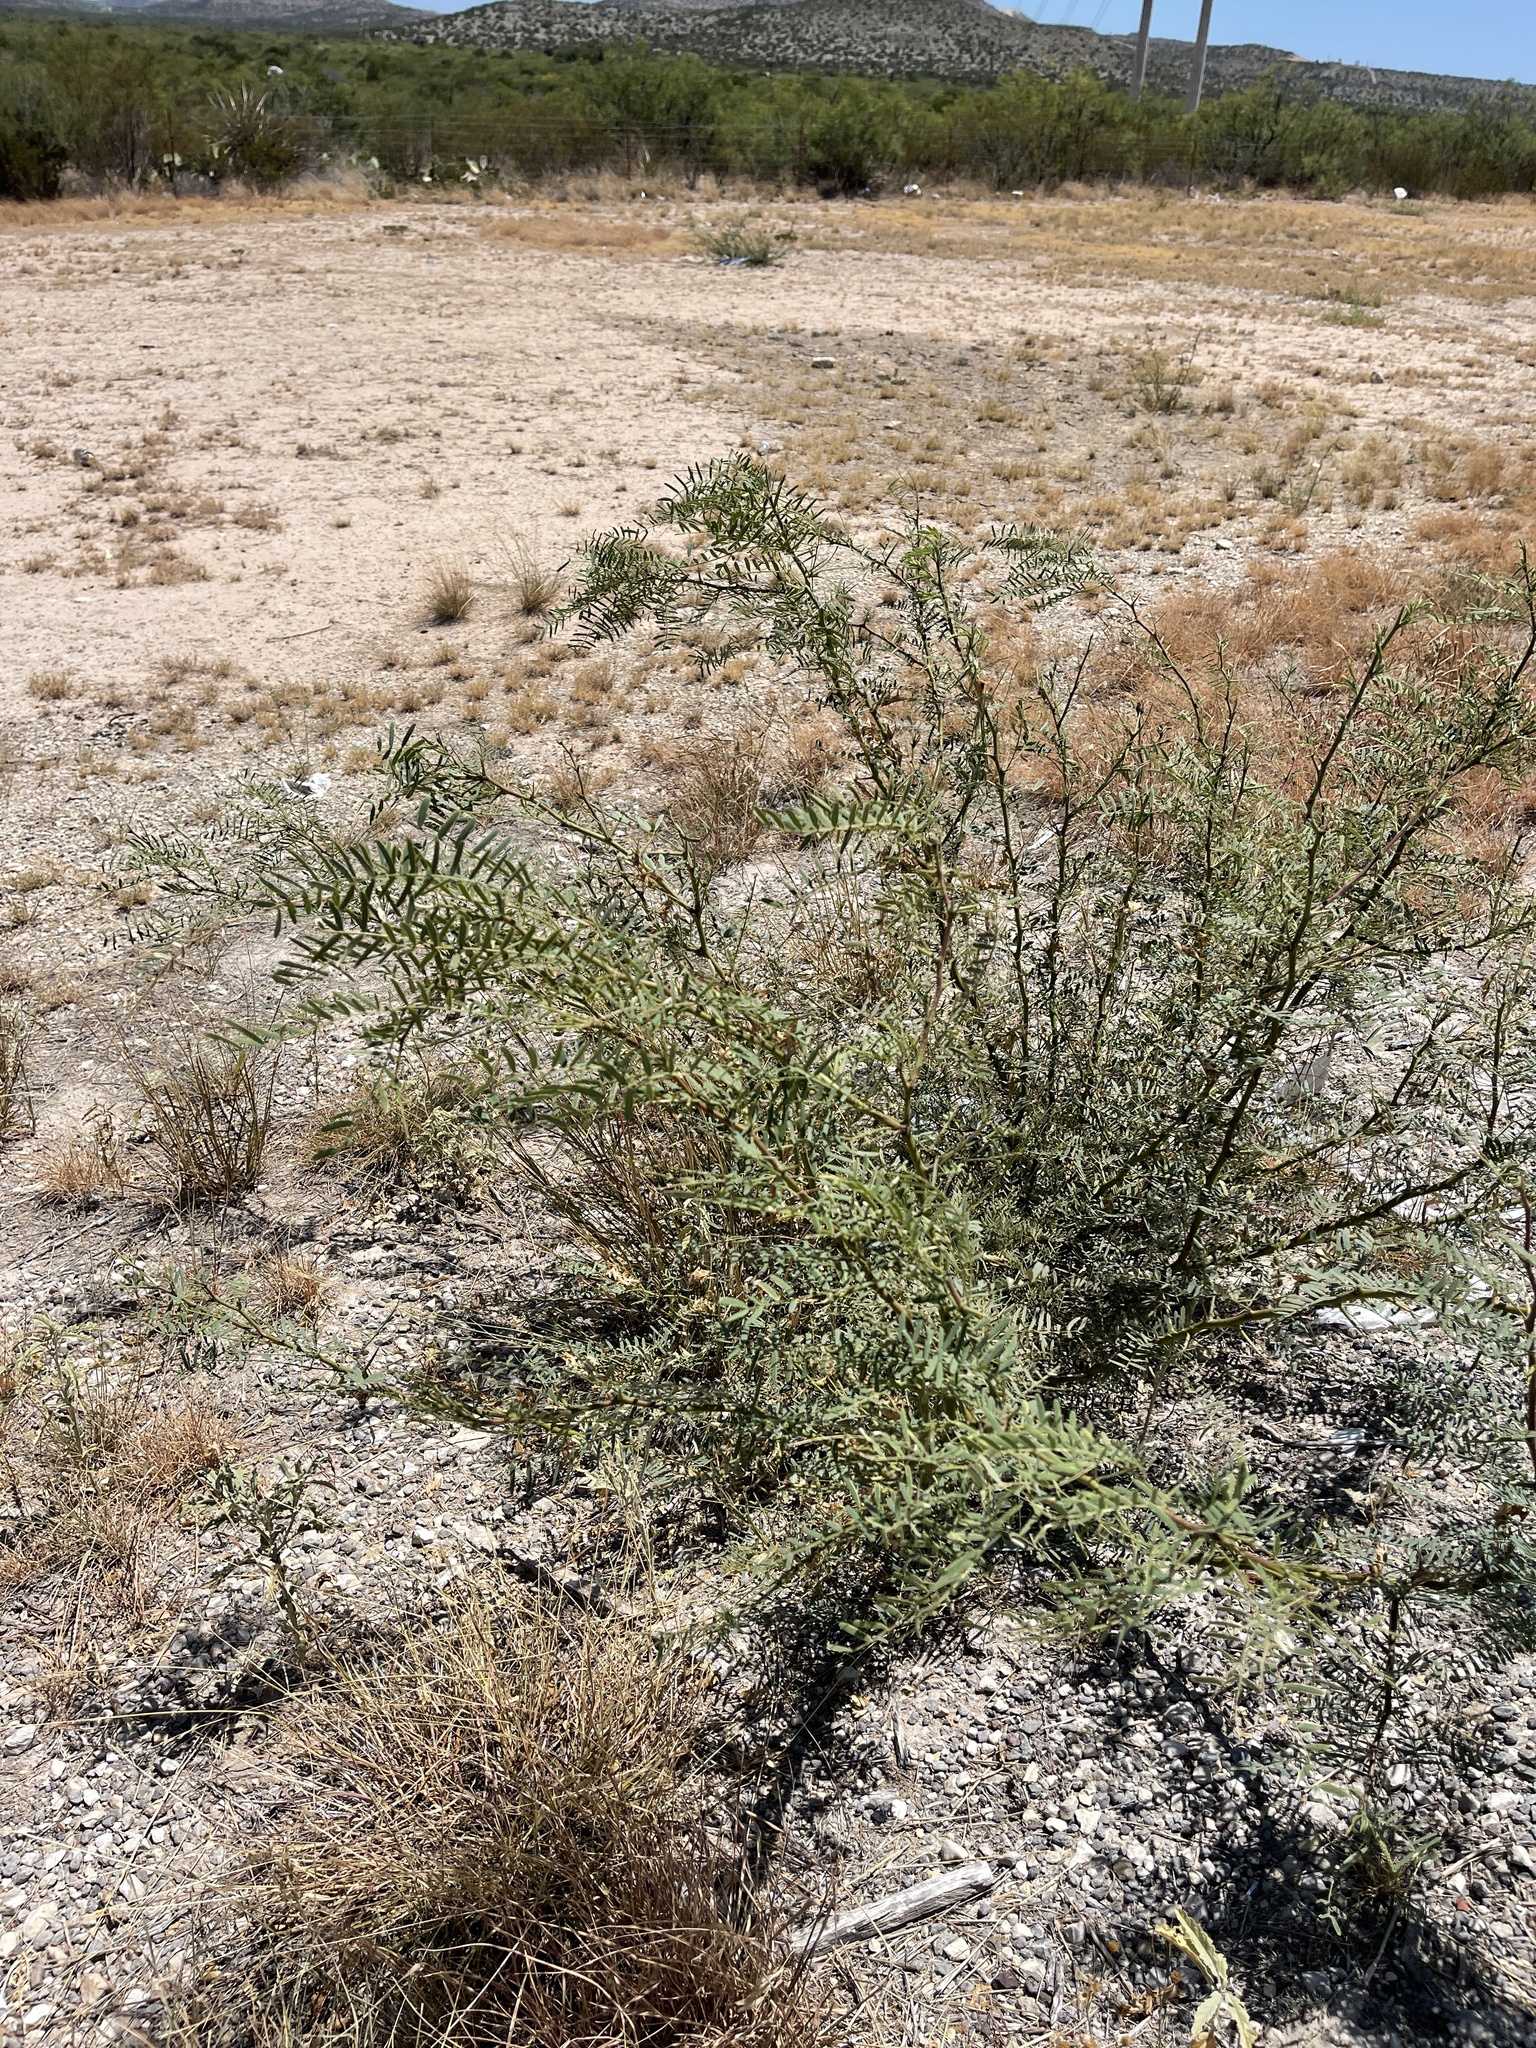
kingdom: Plantae
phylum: Tracheophyta
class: Magnoliopsida
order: Fabales
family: Fabaceae
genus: Prosopis
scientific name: Prosopis glandulosa
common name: Honey mesquite
